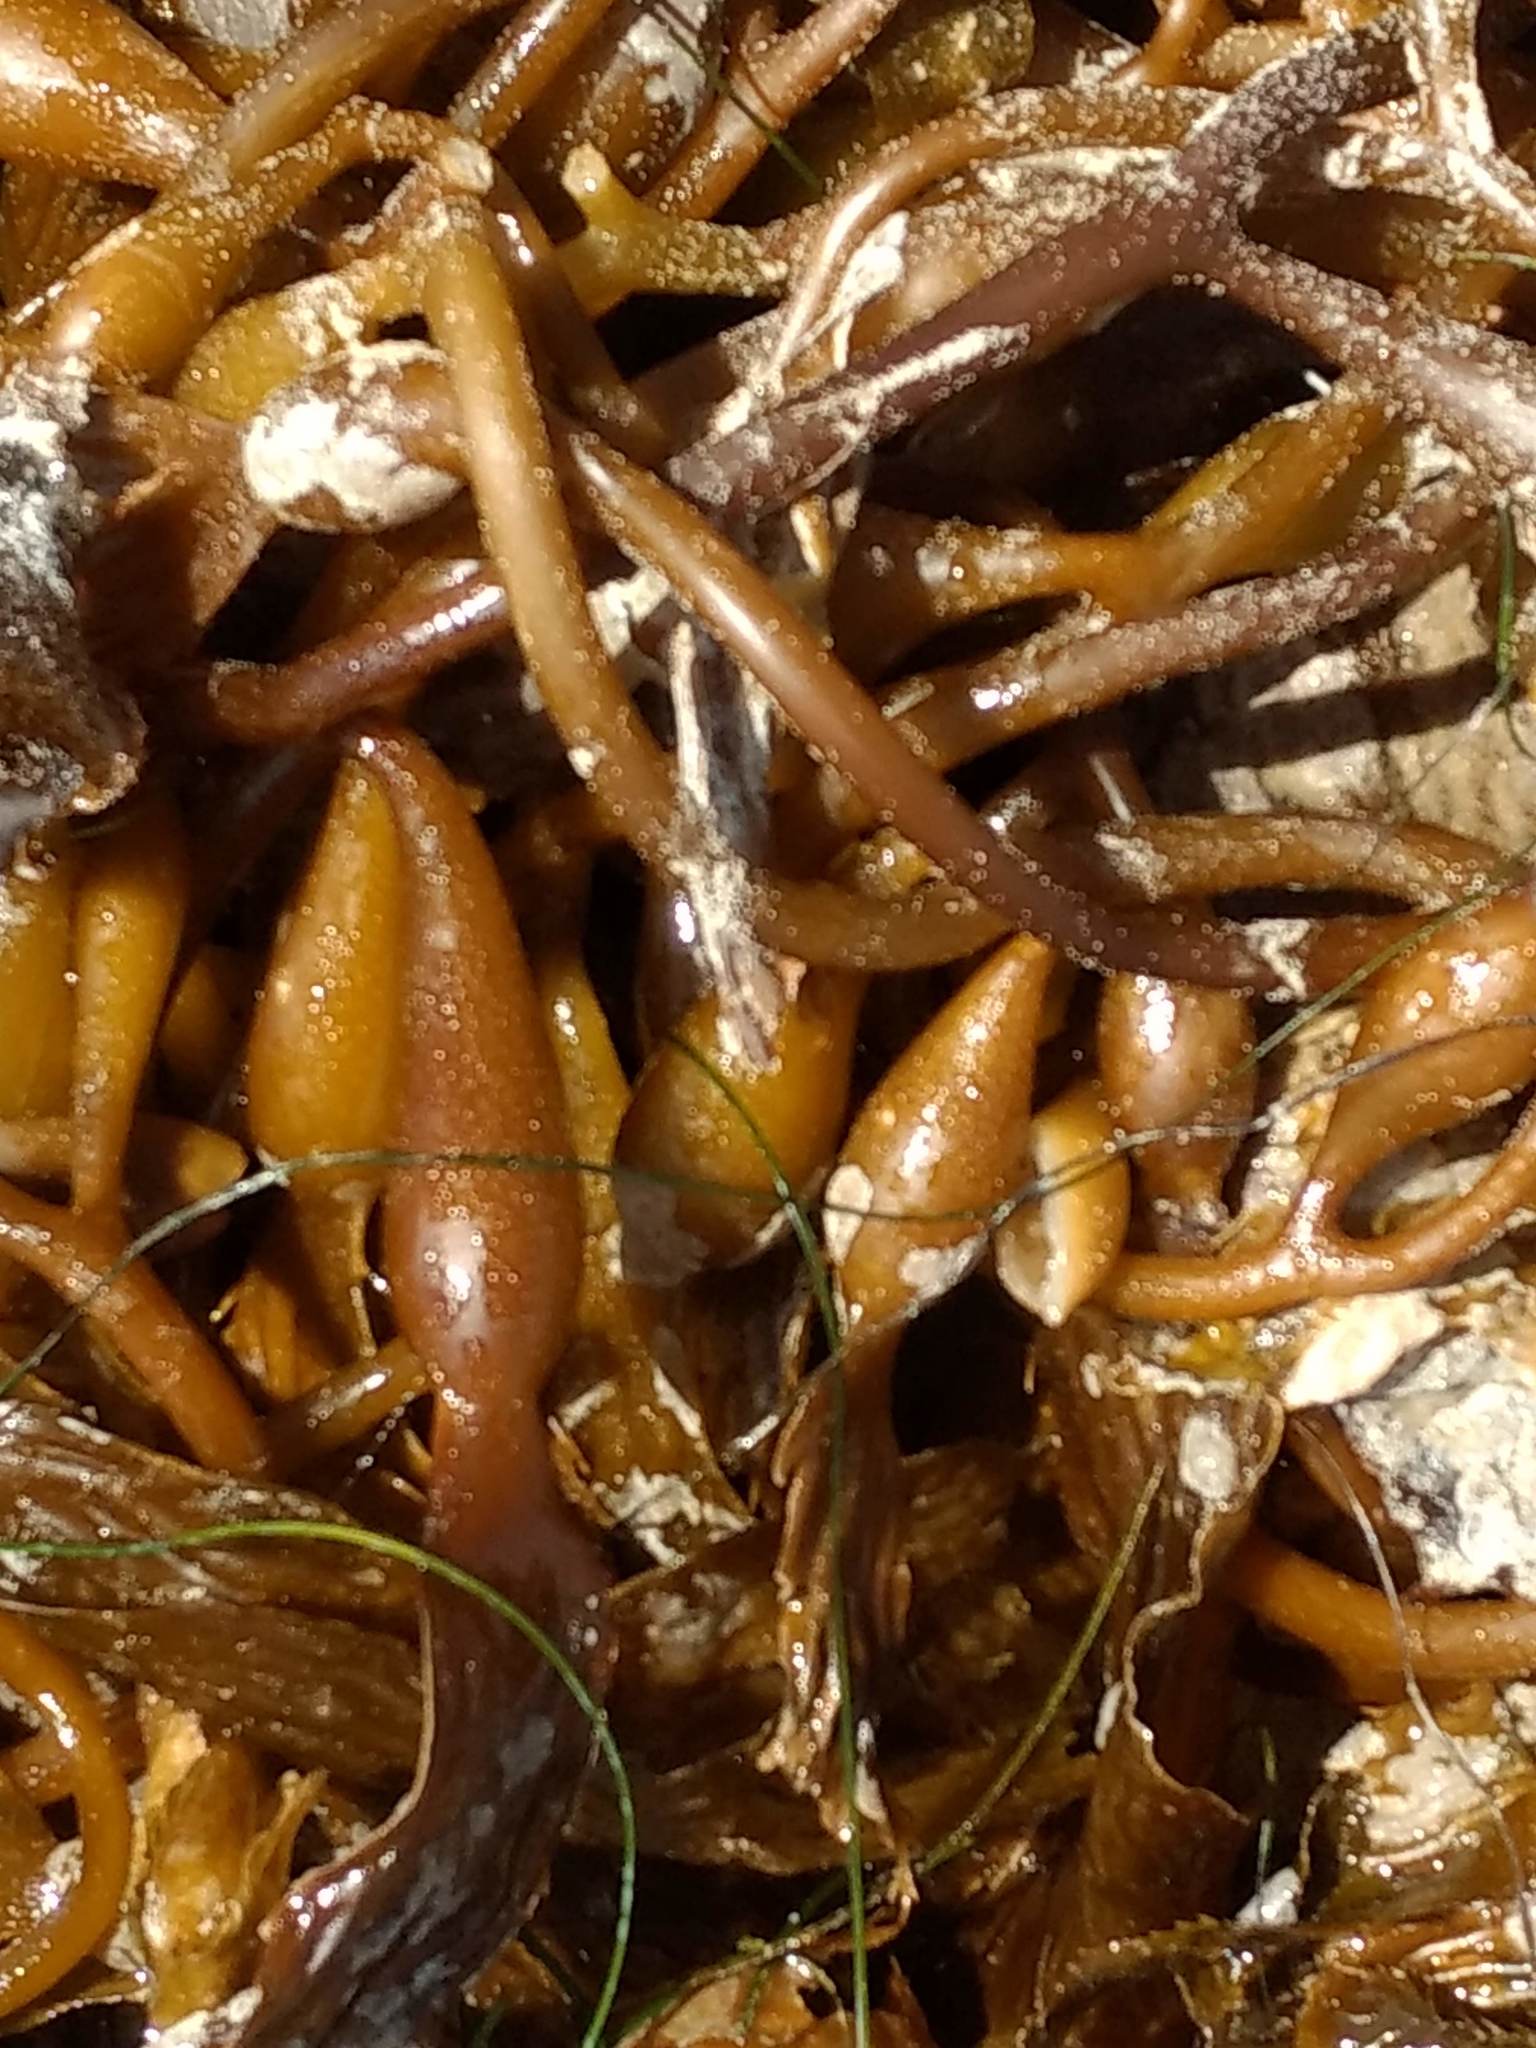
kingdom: Chromista
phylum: Ochrophyta
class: Phaeophyceae
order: Laminariales
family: Laminariaceae
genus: Macrocystis
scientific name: Macrocystis pyrifera
